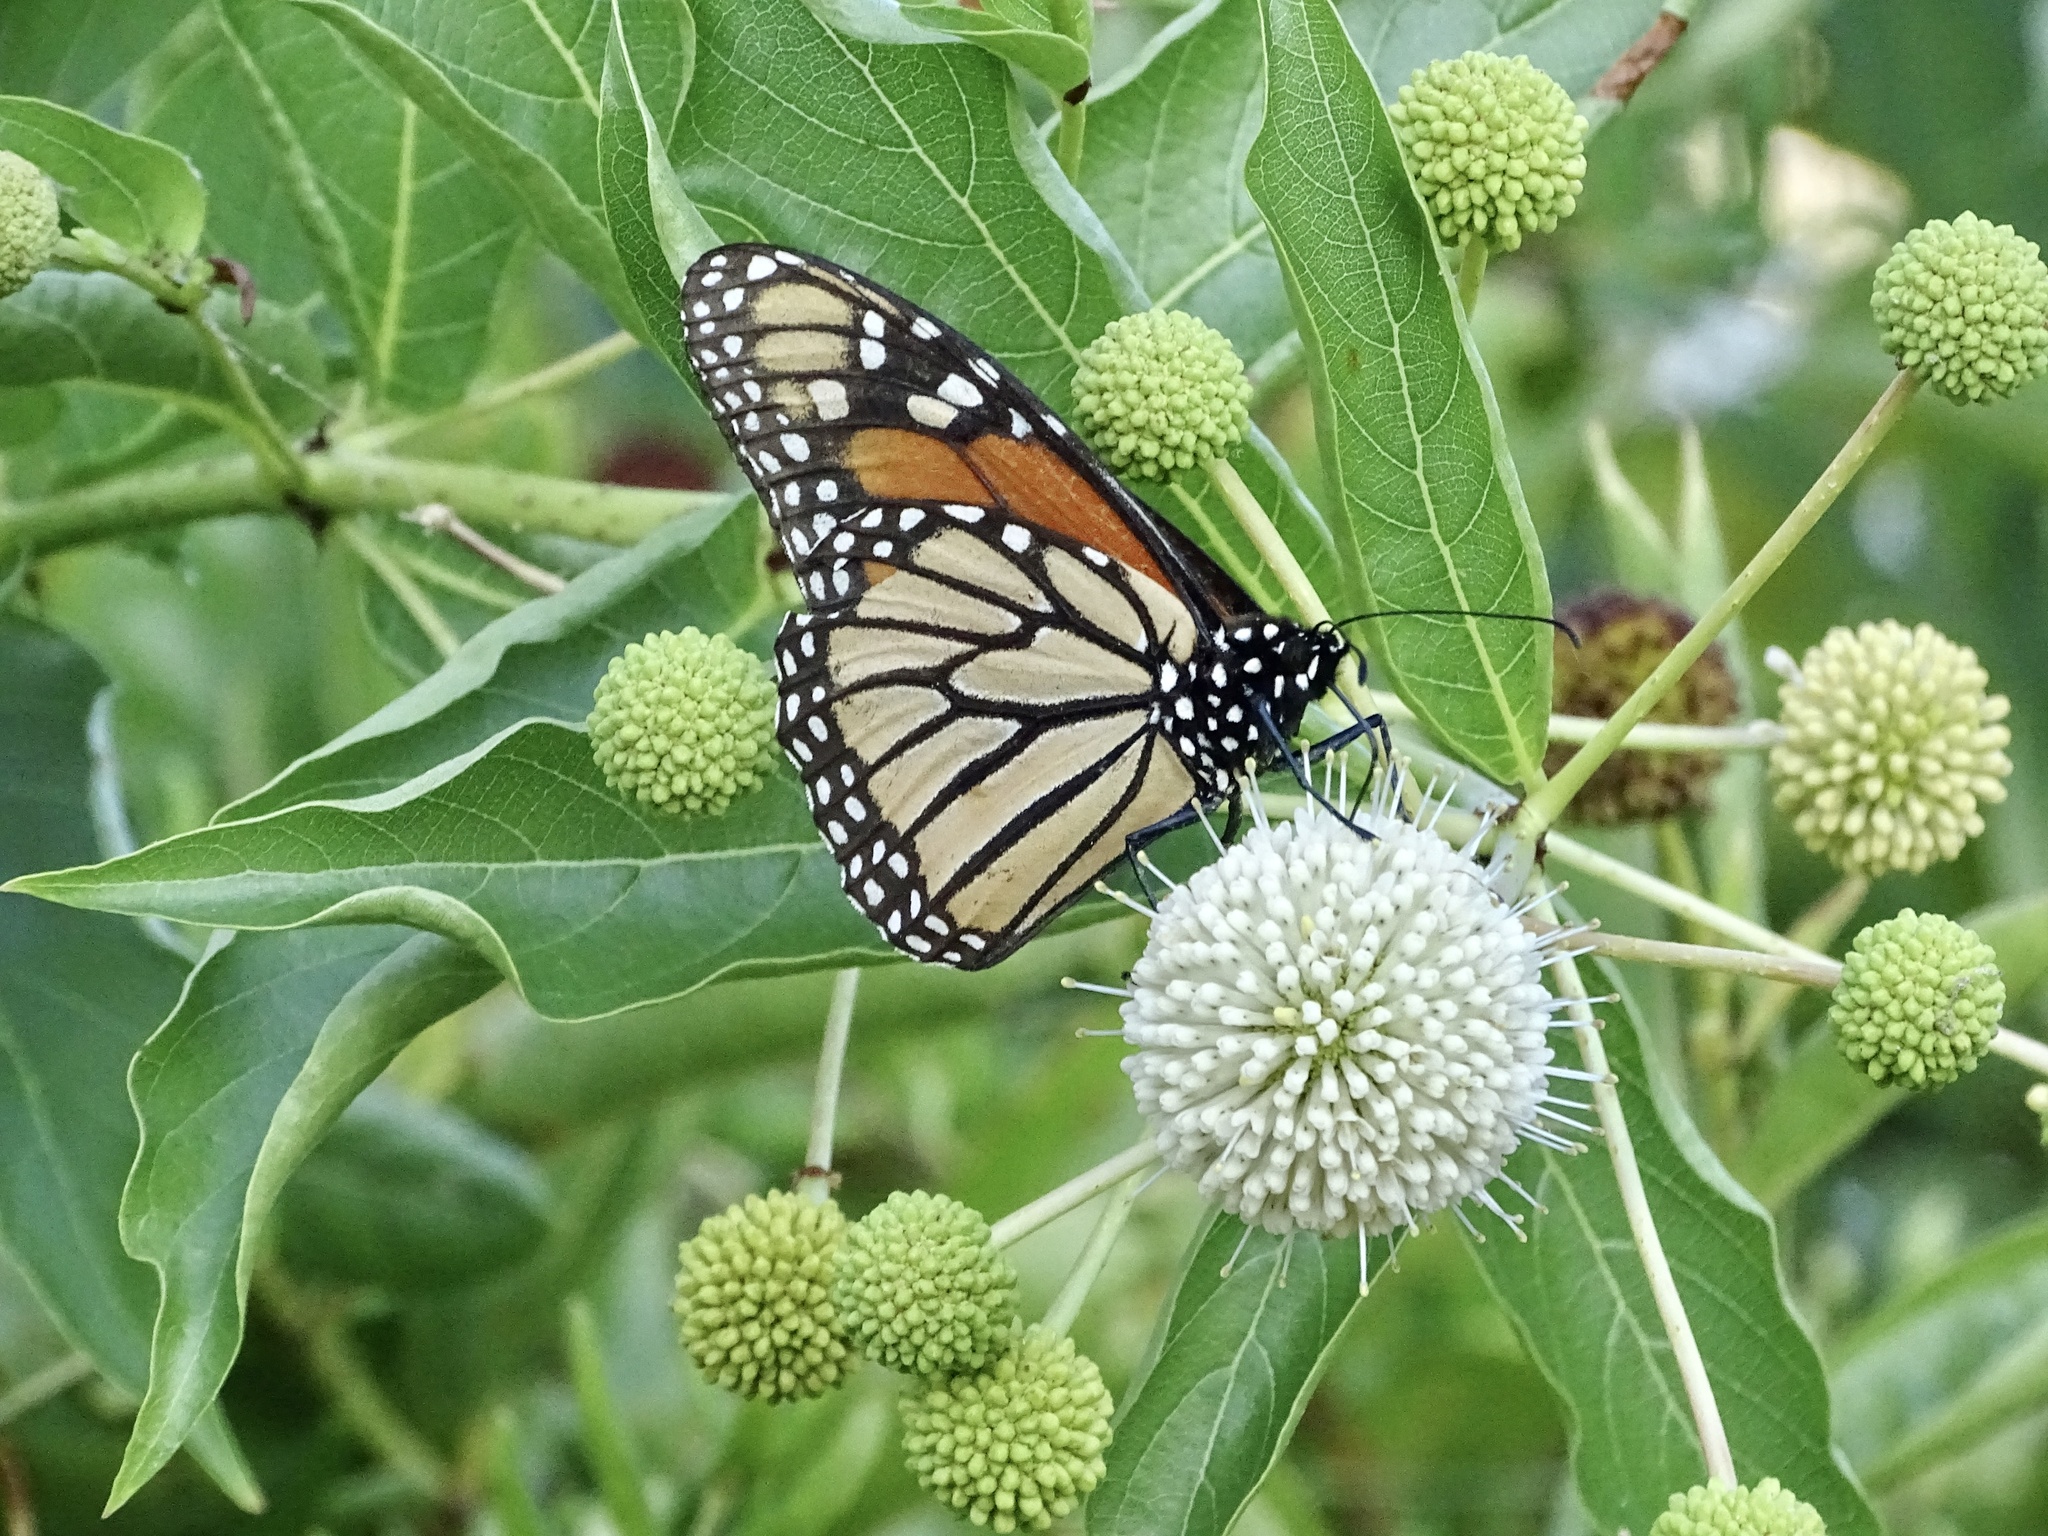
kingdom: Animalia
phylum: Arthropoda
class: Insecta
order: Lepidoptera
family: Nymphalidae
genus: Danaus
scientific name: Danaus plexippus
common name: Monarch
